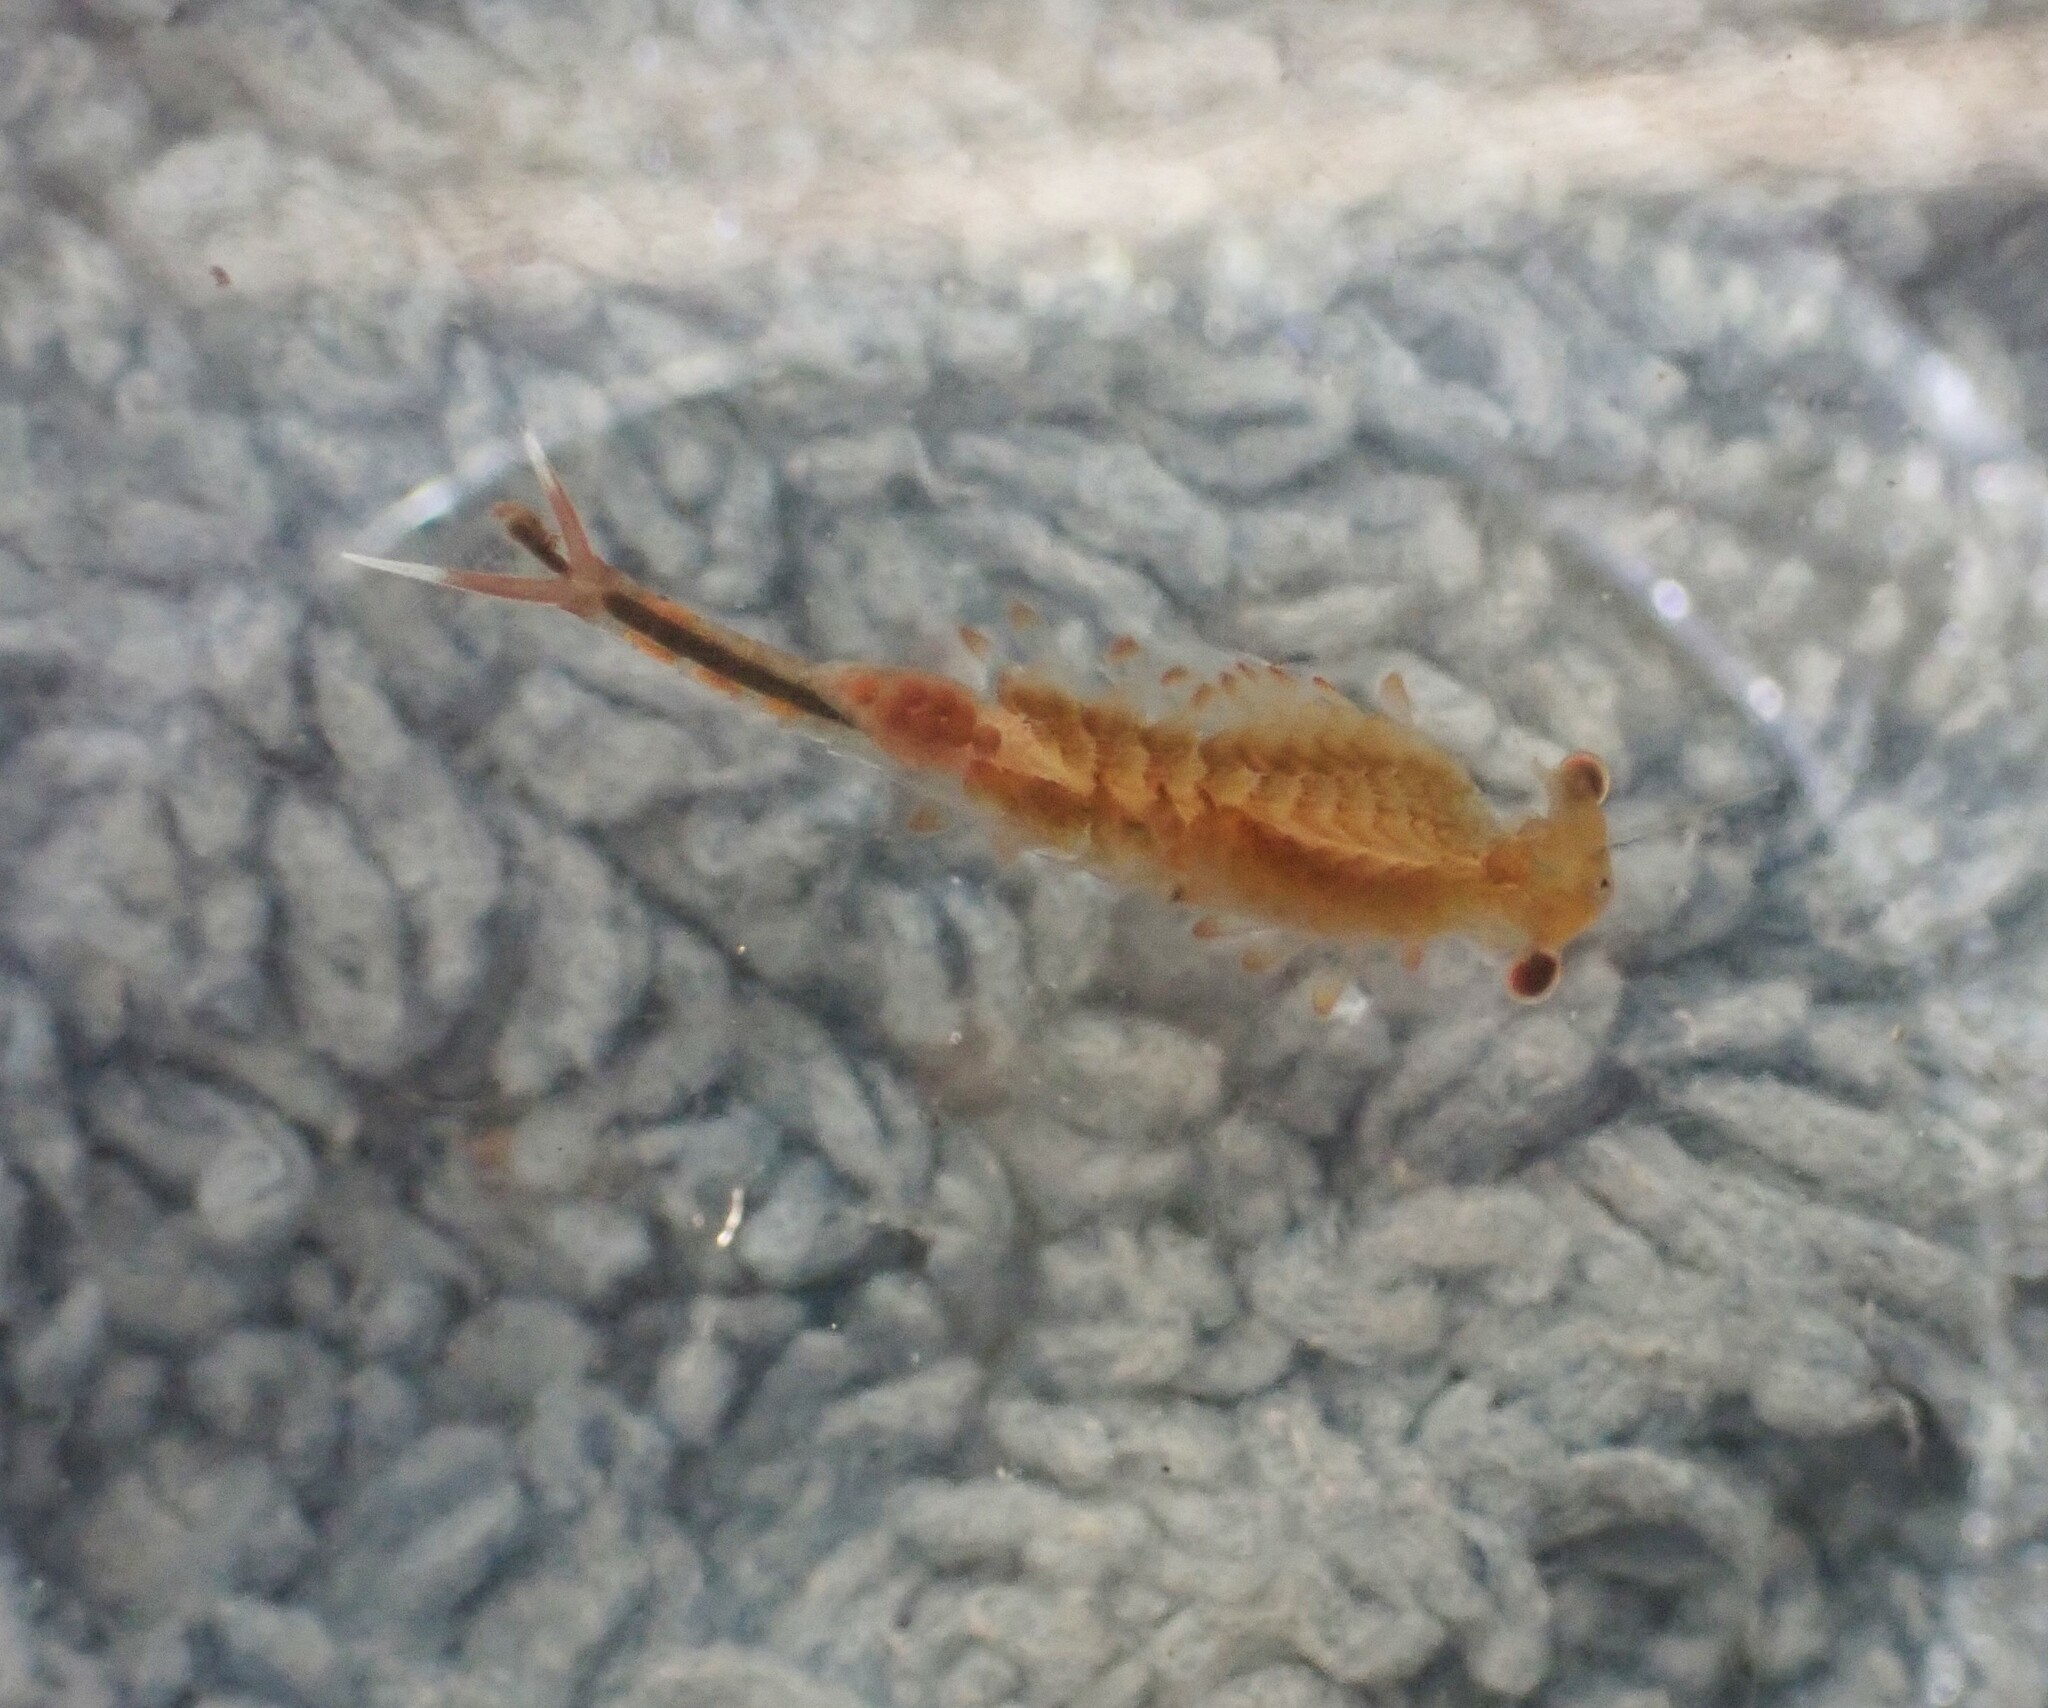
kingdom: Animalia
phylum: Arthropoda
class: Branchiopoda
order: Anostraca
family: Chirocephalidae
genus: Eubranchipus
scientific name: Eubranchipus oregonus
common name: Oregon fairy shrimp
